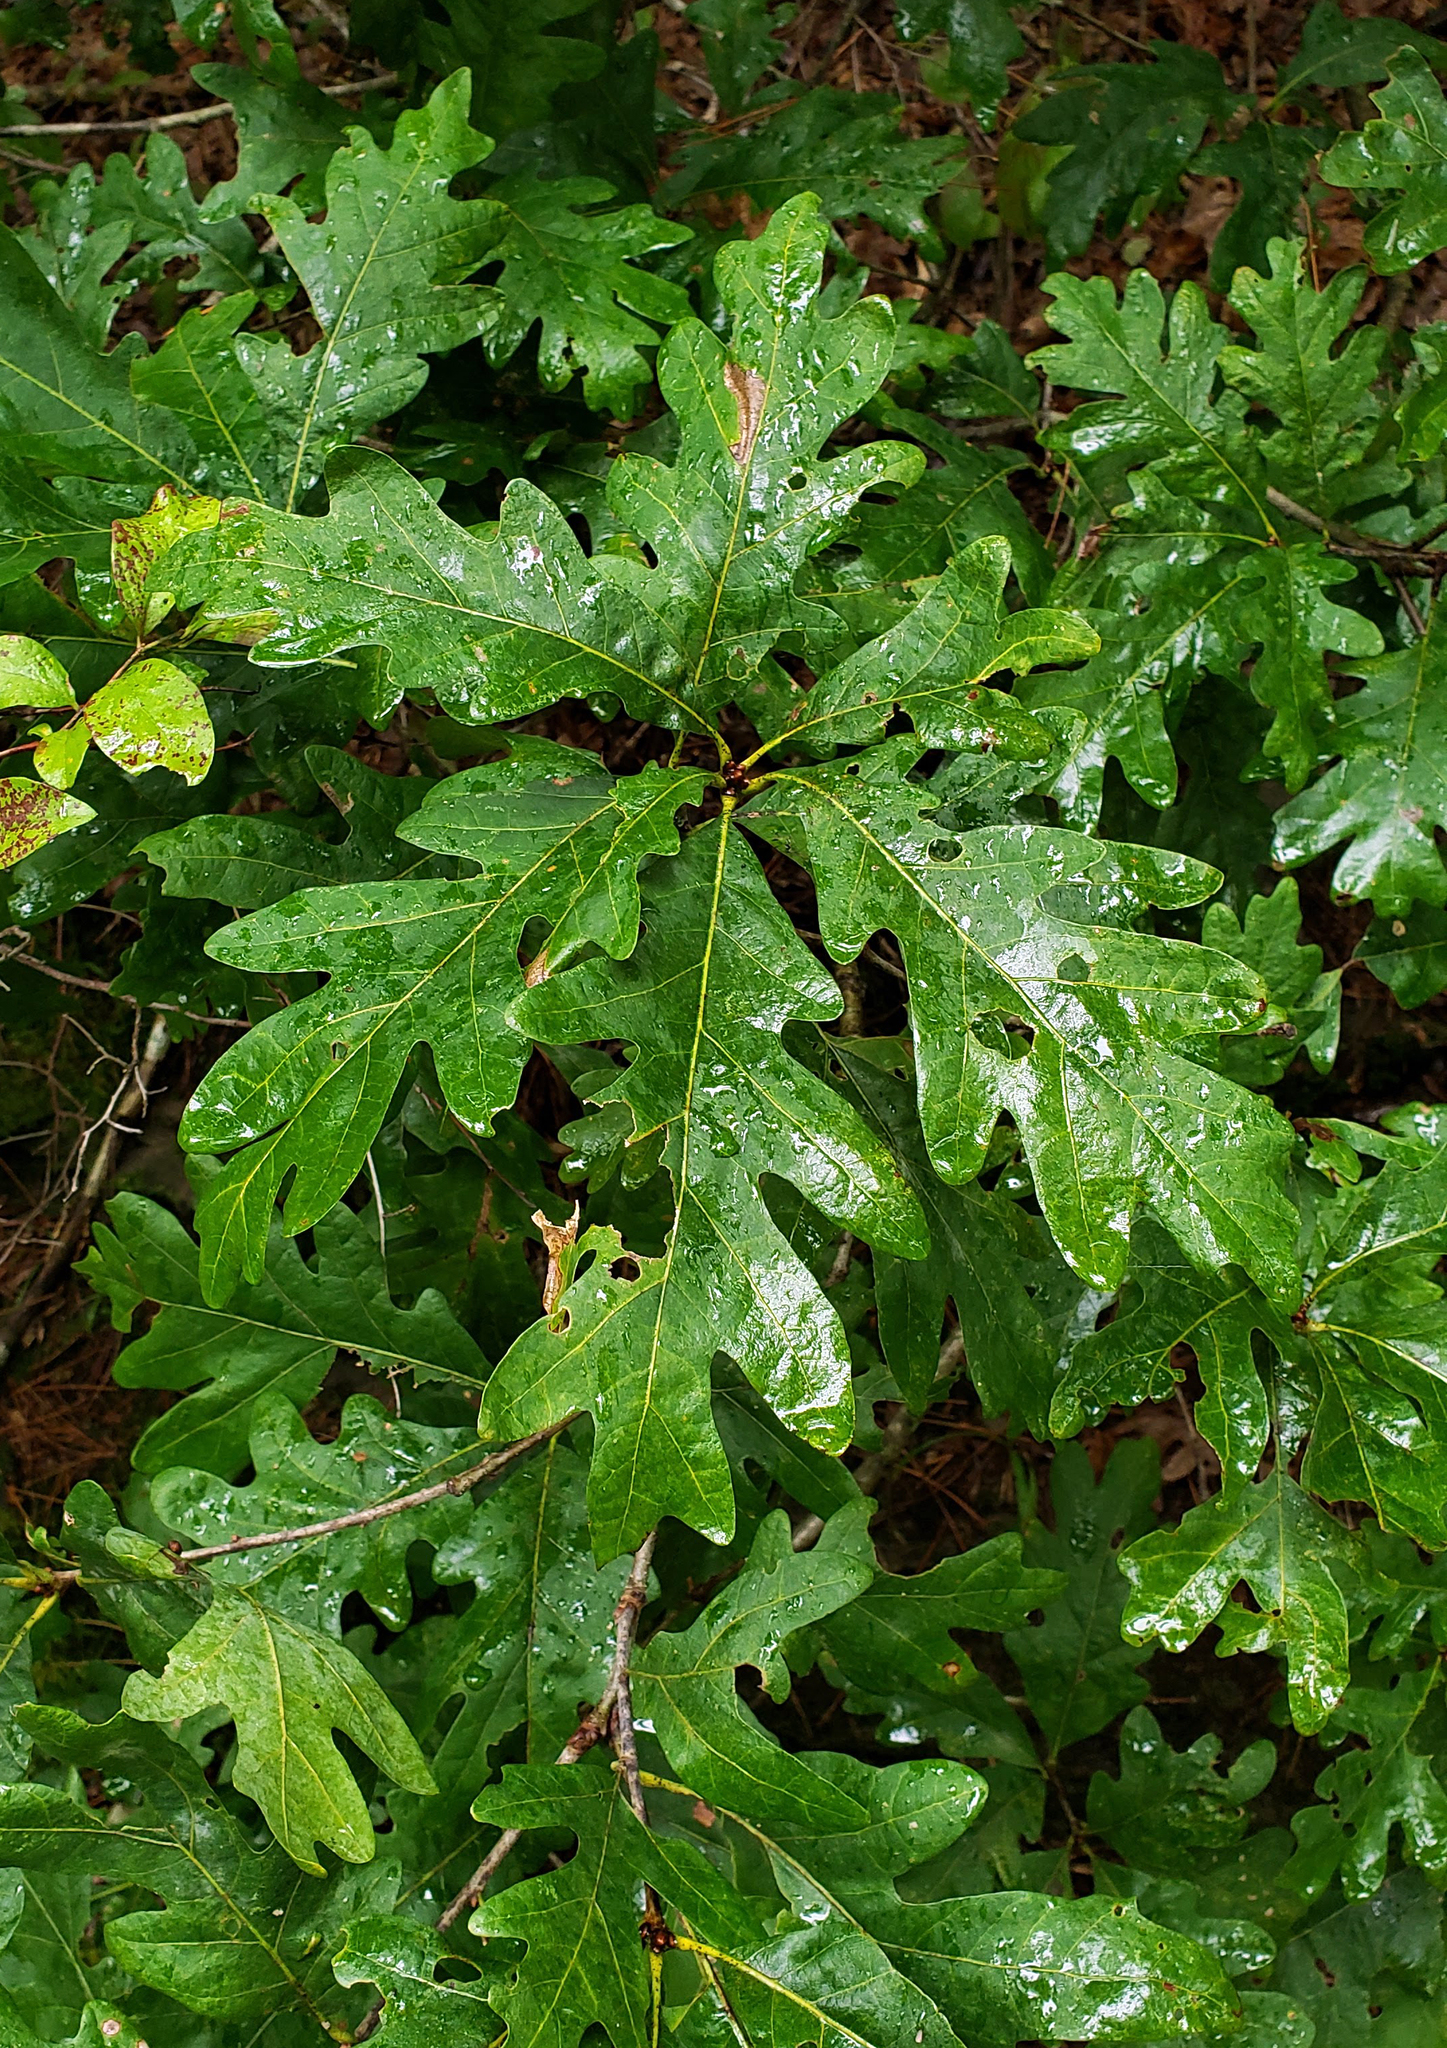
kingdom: Plantae
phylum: Tracheophyta
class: Magnoliopsida
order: Fagales
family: Fagaceae
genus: Quercus
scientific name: Quercus alba
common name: White oak
